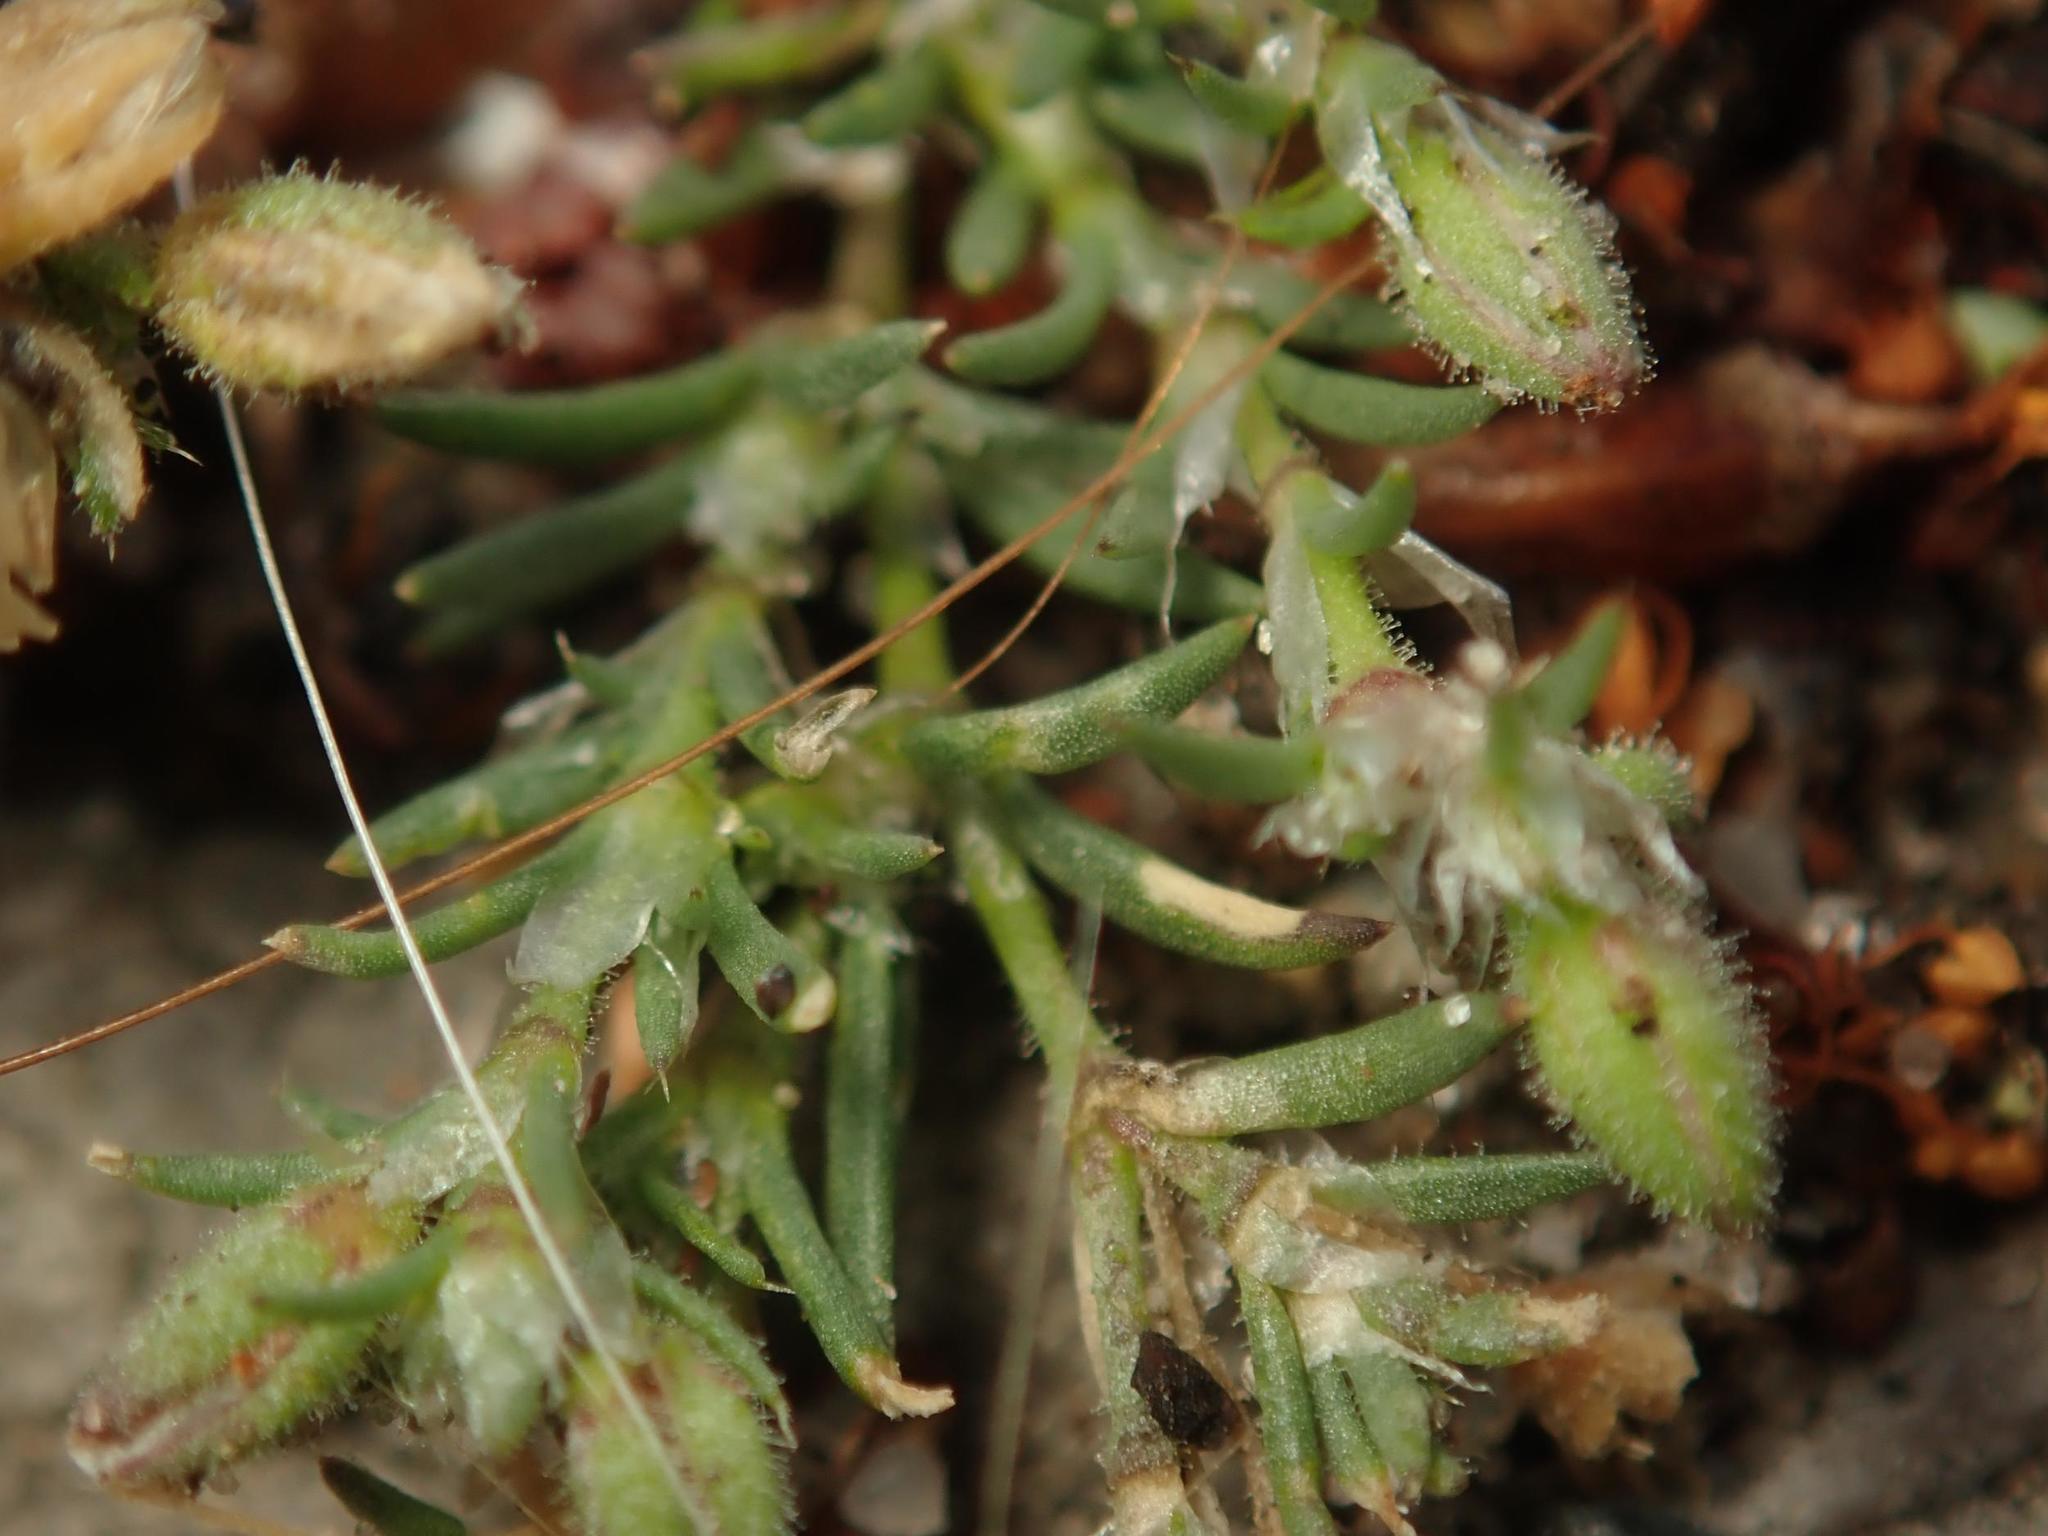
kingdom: Plantae
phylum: Tracheophyta
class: Magnoliopsida
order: Caryophyllales
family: Caryophyllaceae
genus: Spergularia
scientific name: Spergularia rubra
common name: Red sand-spurrey
